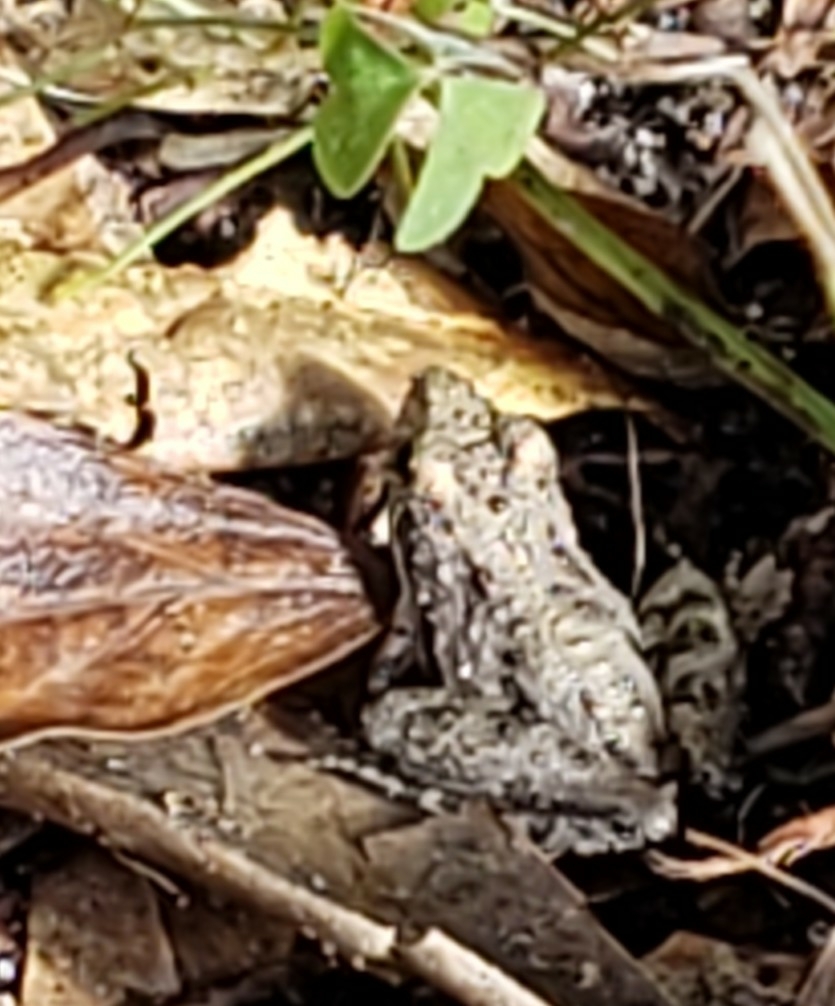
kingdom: Animalia
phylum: Chordata
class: Amphibia
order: Anura
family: Hylidae
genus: Acris
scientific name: Acris gryllus
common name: Southern cricket frog
